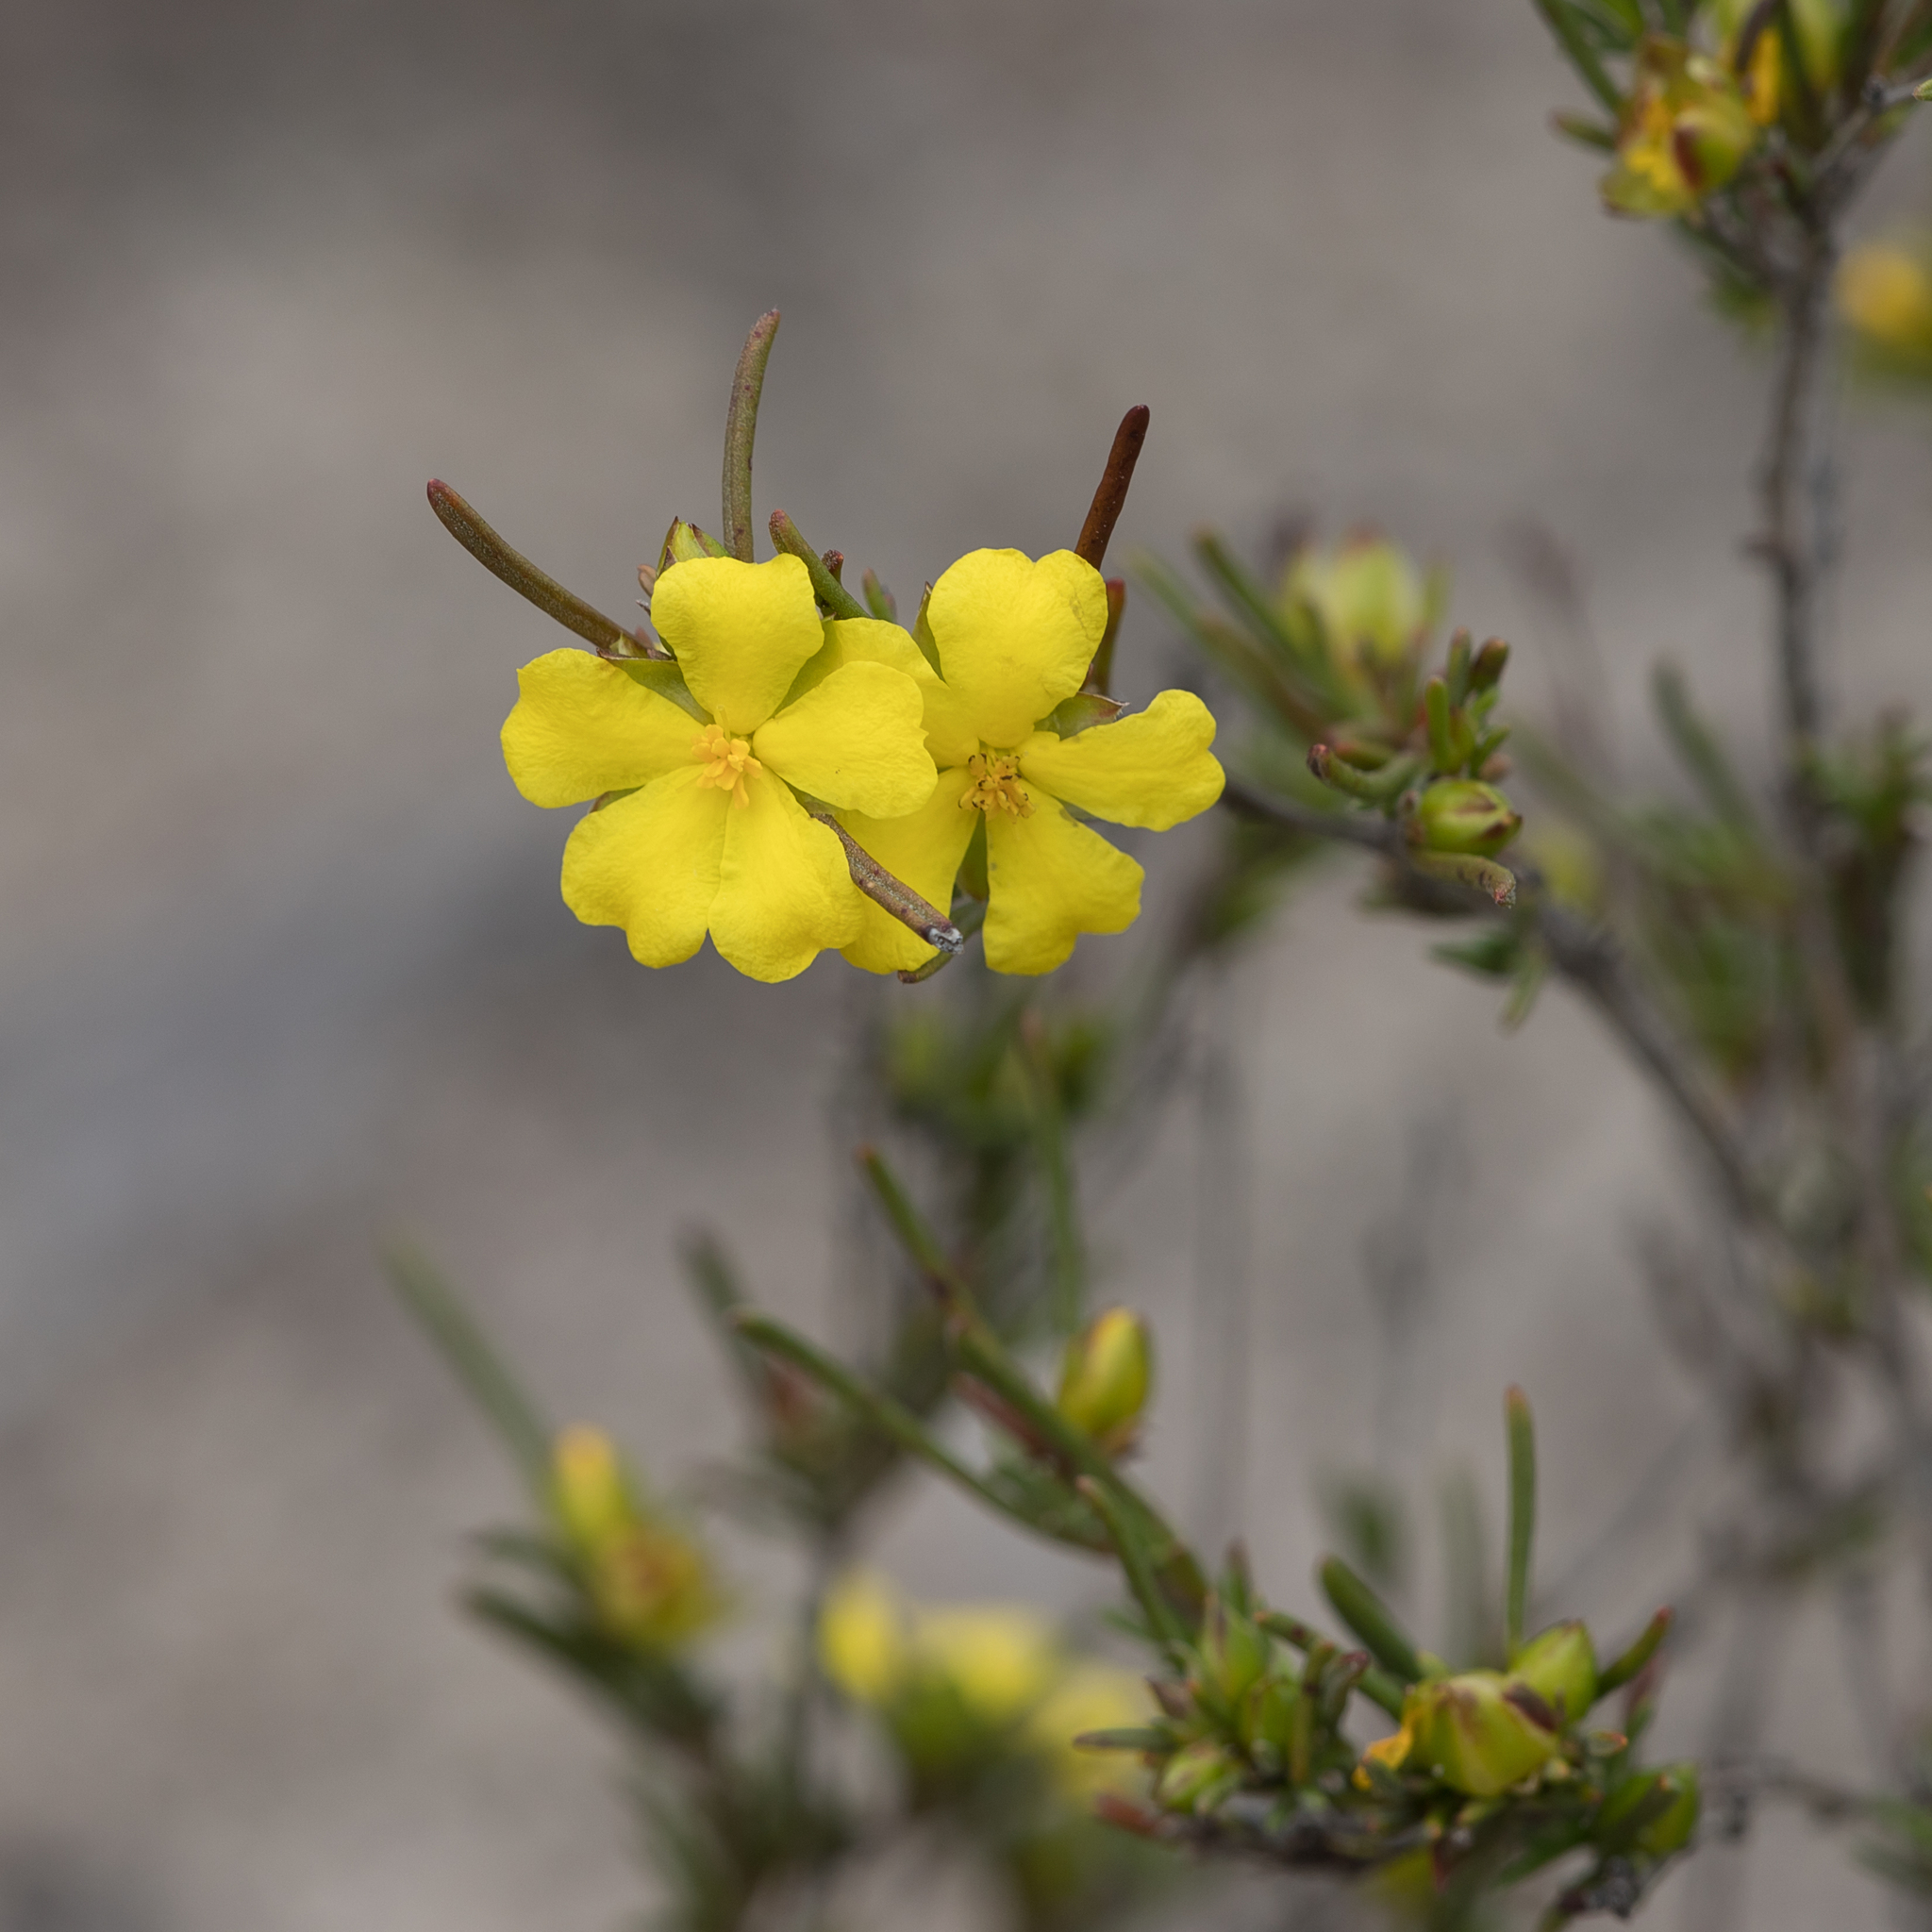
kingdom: Plantae
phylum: Tracheophyta
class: Magnoliopsida
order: Dilleniales
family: Dilleniaceae
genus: Hibbertia
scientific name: Hibbertia virgata
